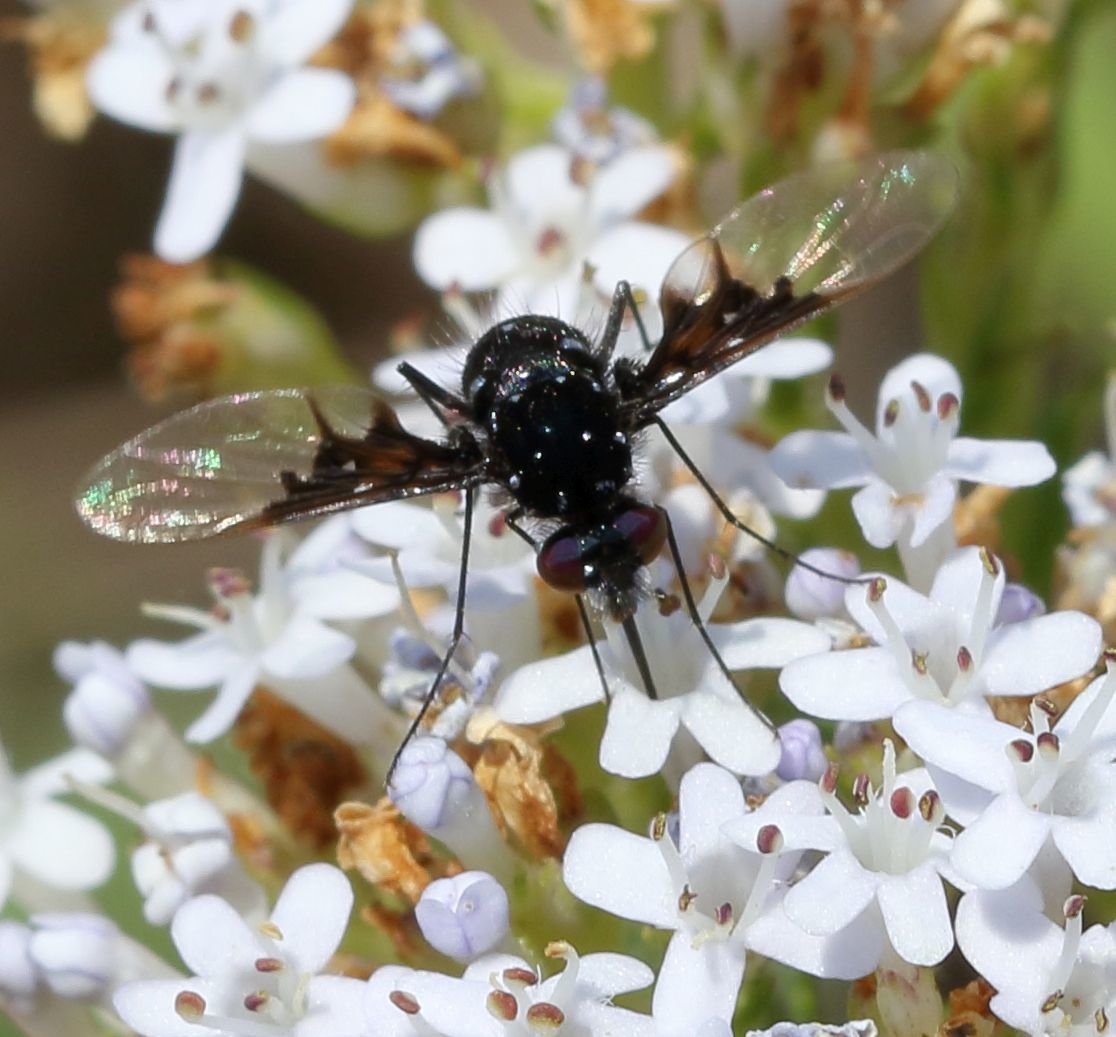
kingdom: Animalia
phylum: Arthropoda
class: Insecta
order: Diptera
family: Bombyliidae
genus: Bombylella
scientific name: Bombylella delicata
